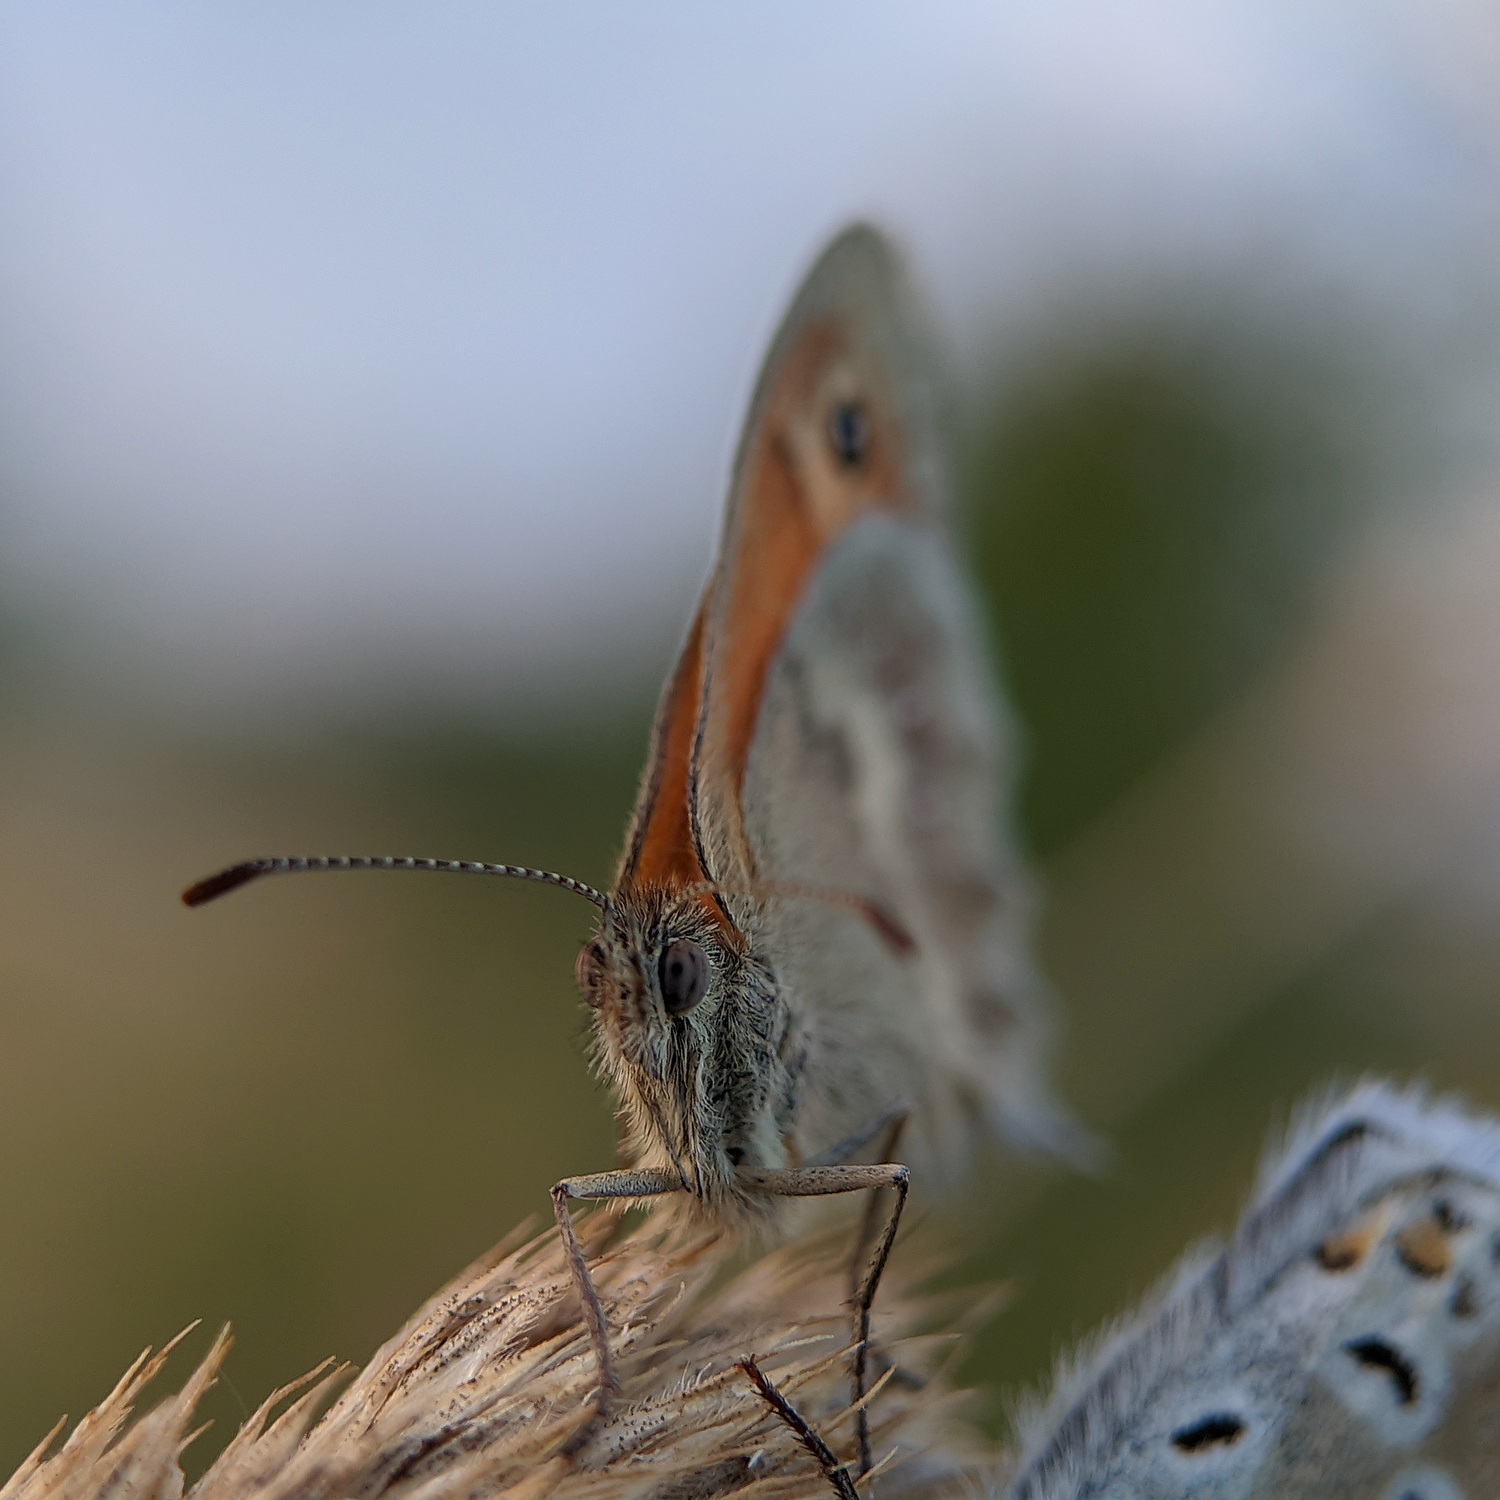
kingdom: Animalia
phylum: Arthropoda
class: Insecta
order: Lepidoptera
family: Nymphalidae
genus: Coenonympha
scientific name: Coenonympha pamphilus
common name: Small heath
